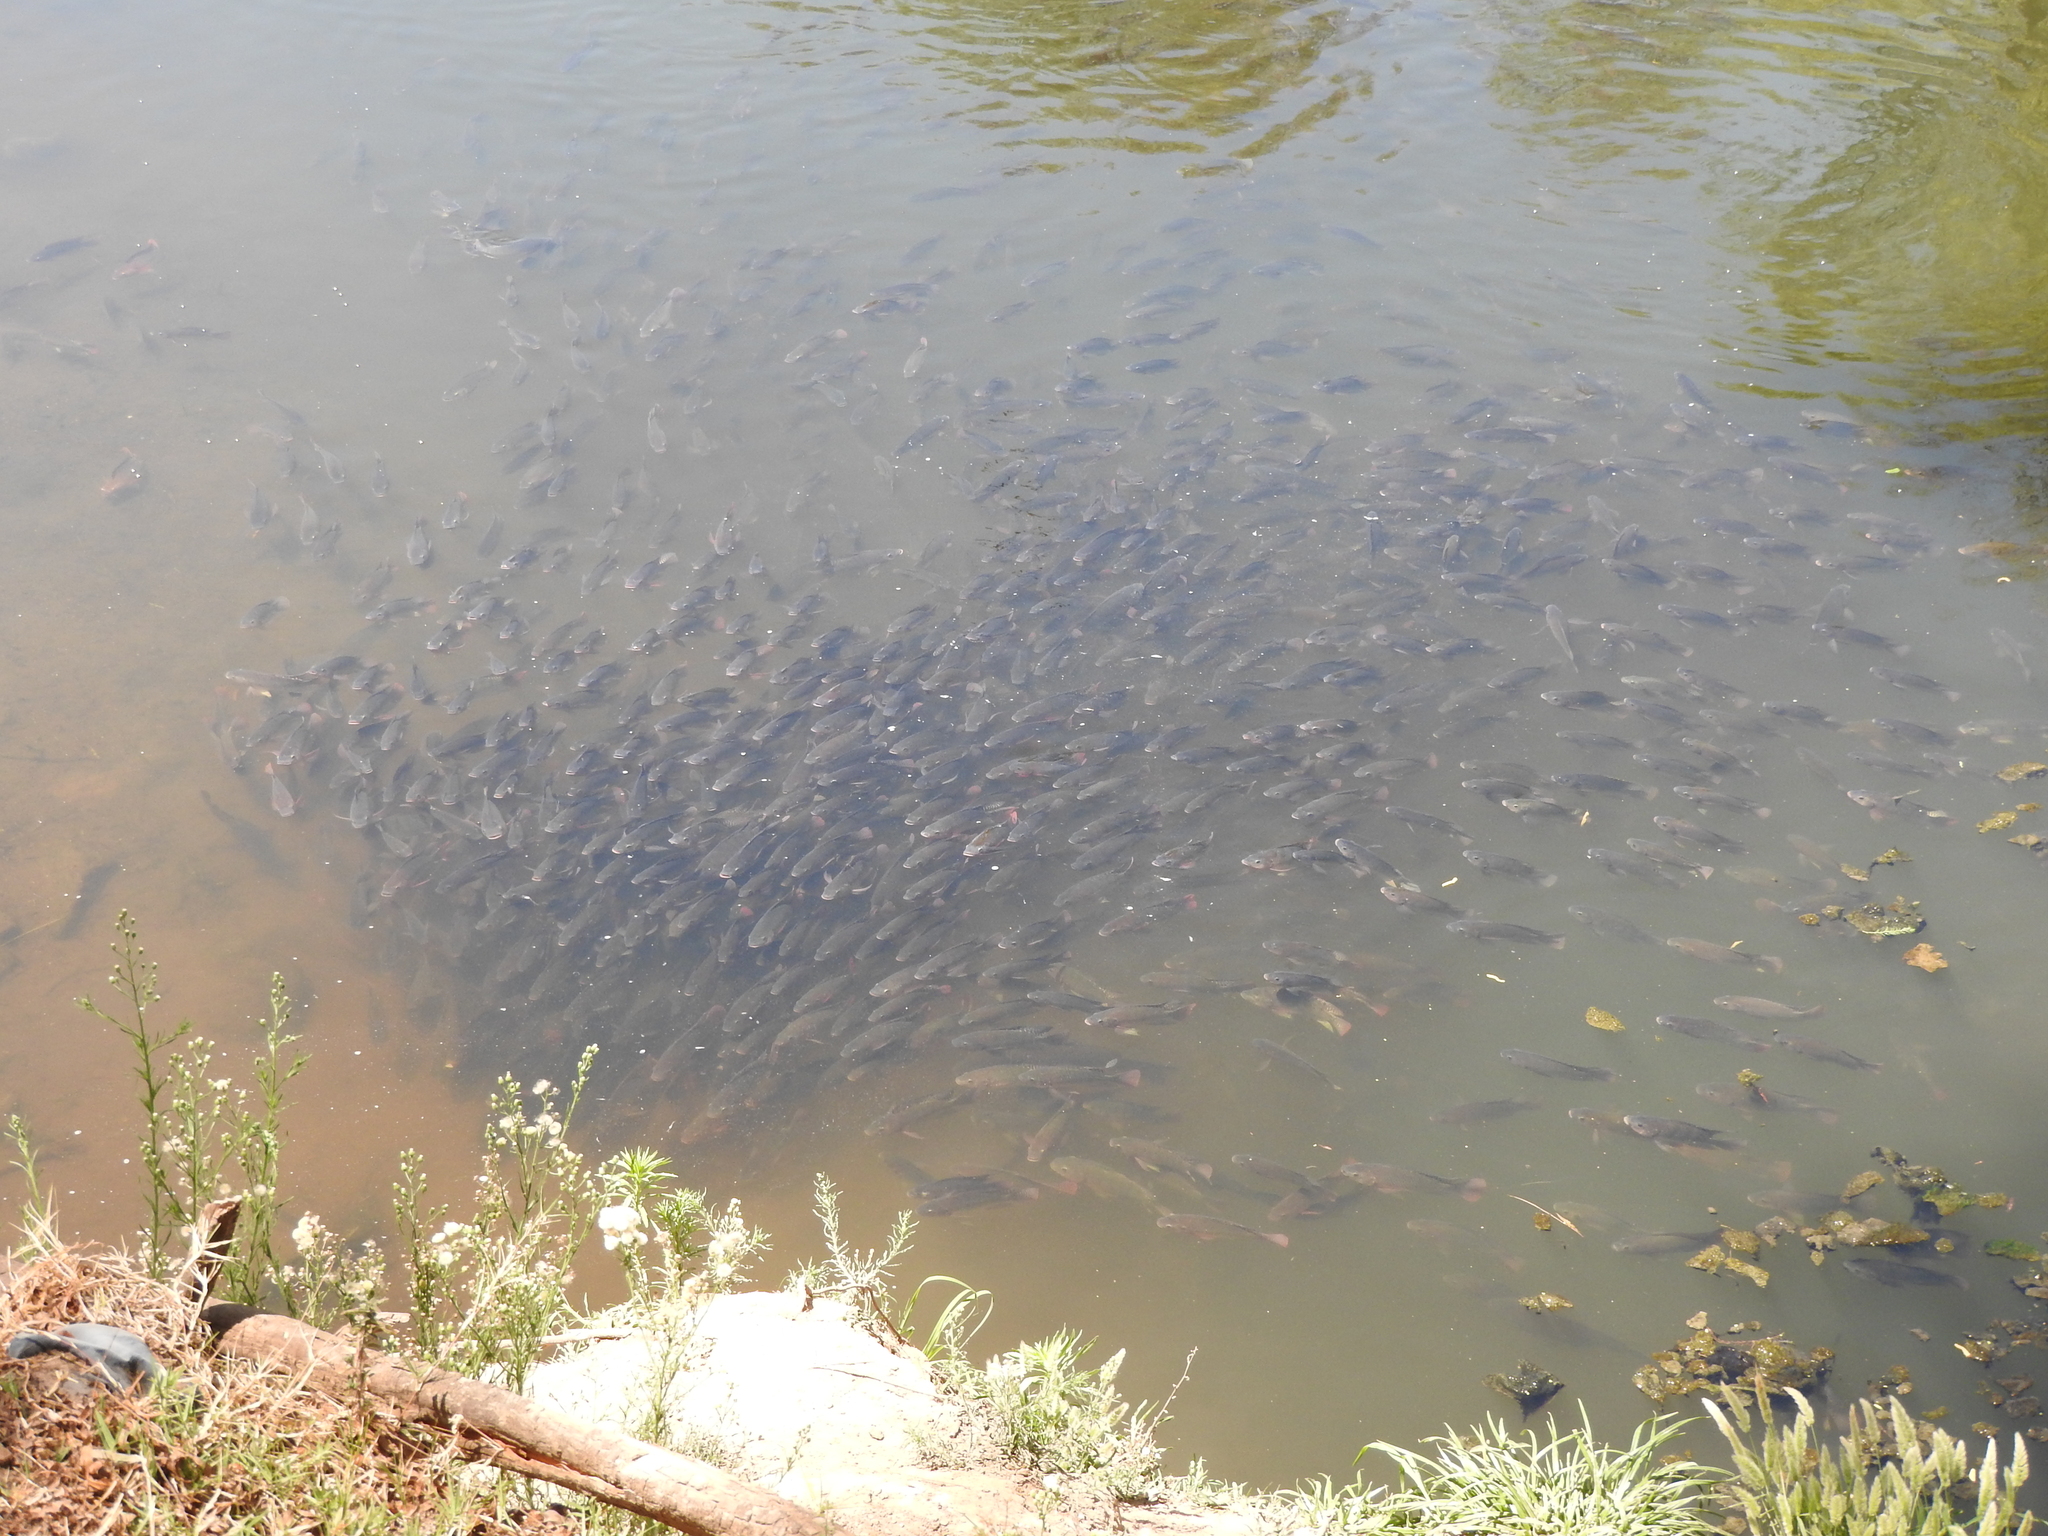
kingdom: Animalia
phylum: Chordata
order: Perciformes
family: Cichlidae
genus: Oreochromis
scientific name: Oreochromis niloticus
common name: Nile tilapia
